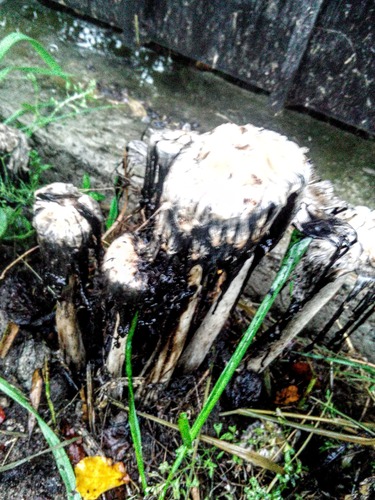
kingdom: Fungi
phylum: Basidiomycota
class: Agaricomycetes
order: Agaricales
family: Agaricaceae
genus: Coprinus
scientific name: Coprinus comatus
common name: Lawyer's wig
